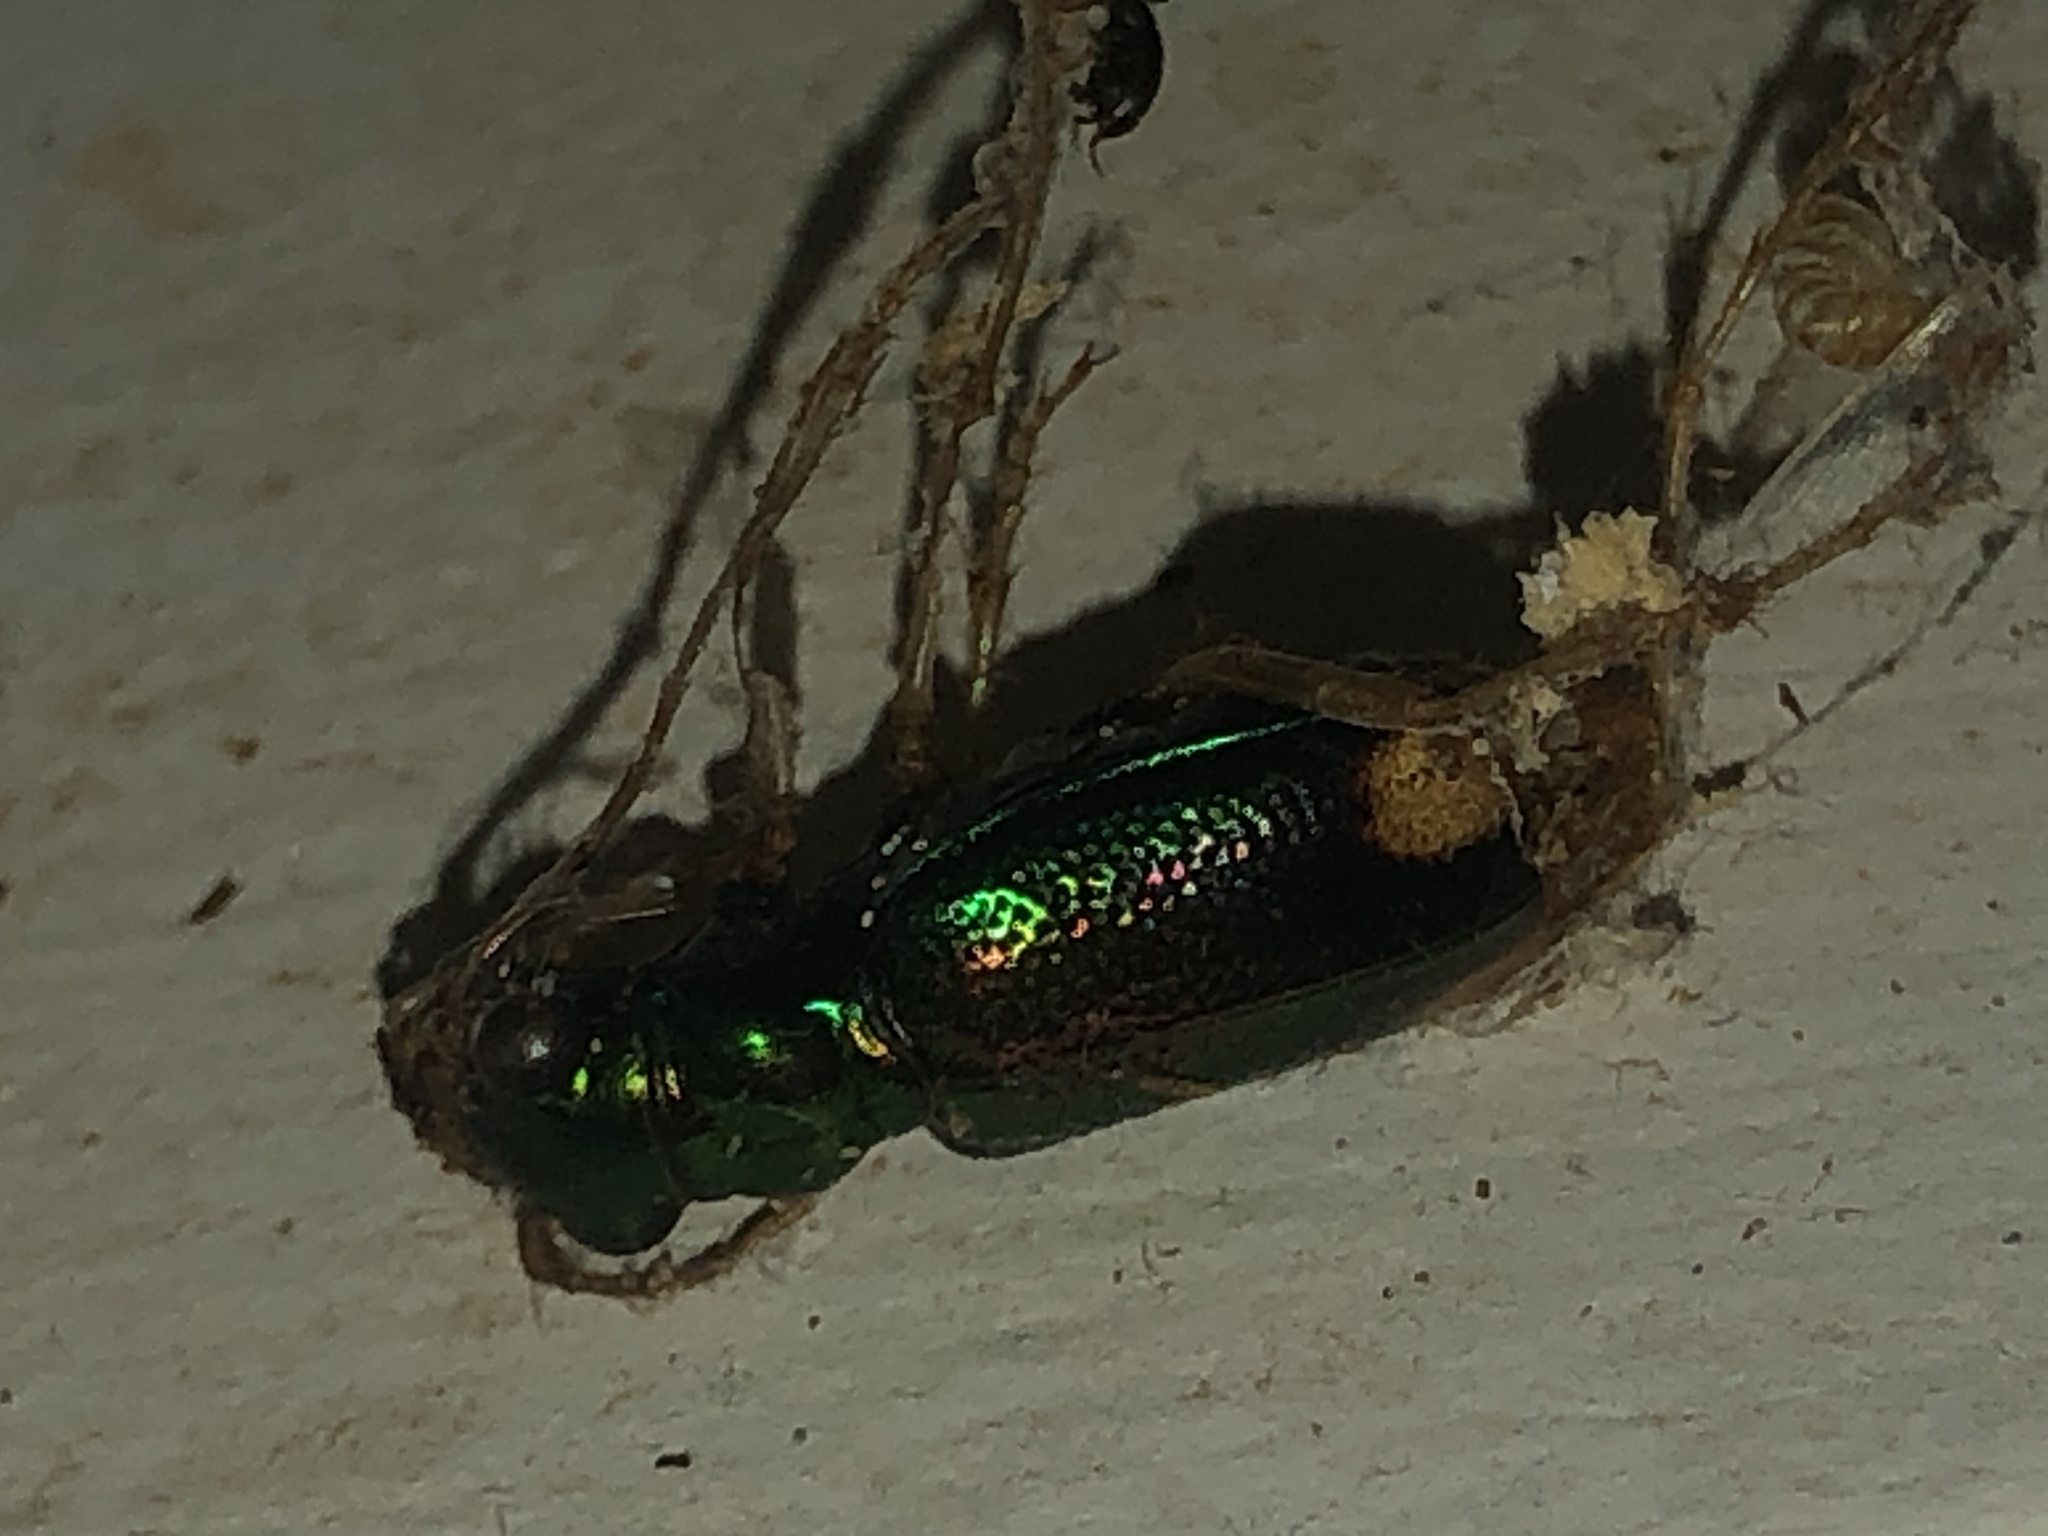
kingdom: Animalia
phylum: Arthropoda
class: Insecta
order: Coleoptera
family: Carabidae
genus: Tetracha
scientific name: Tetracha carolina
